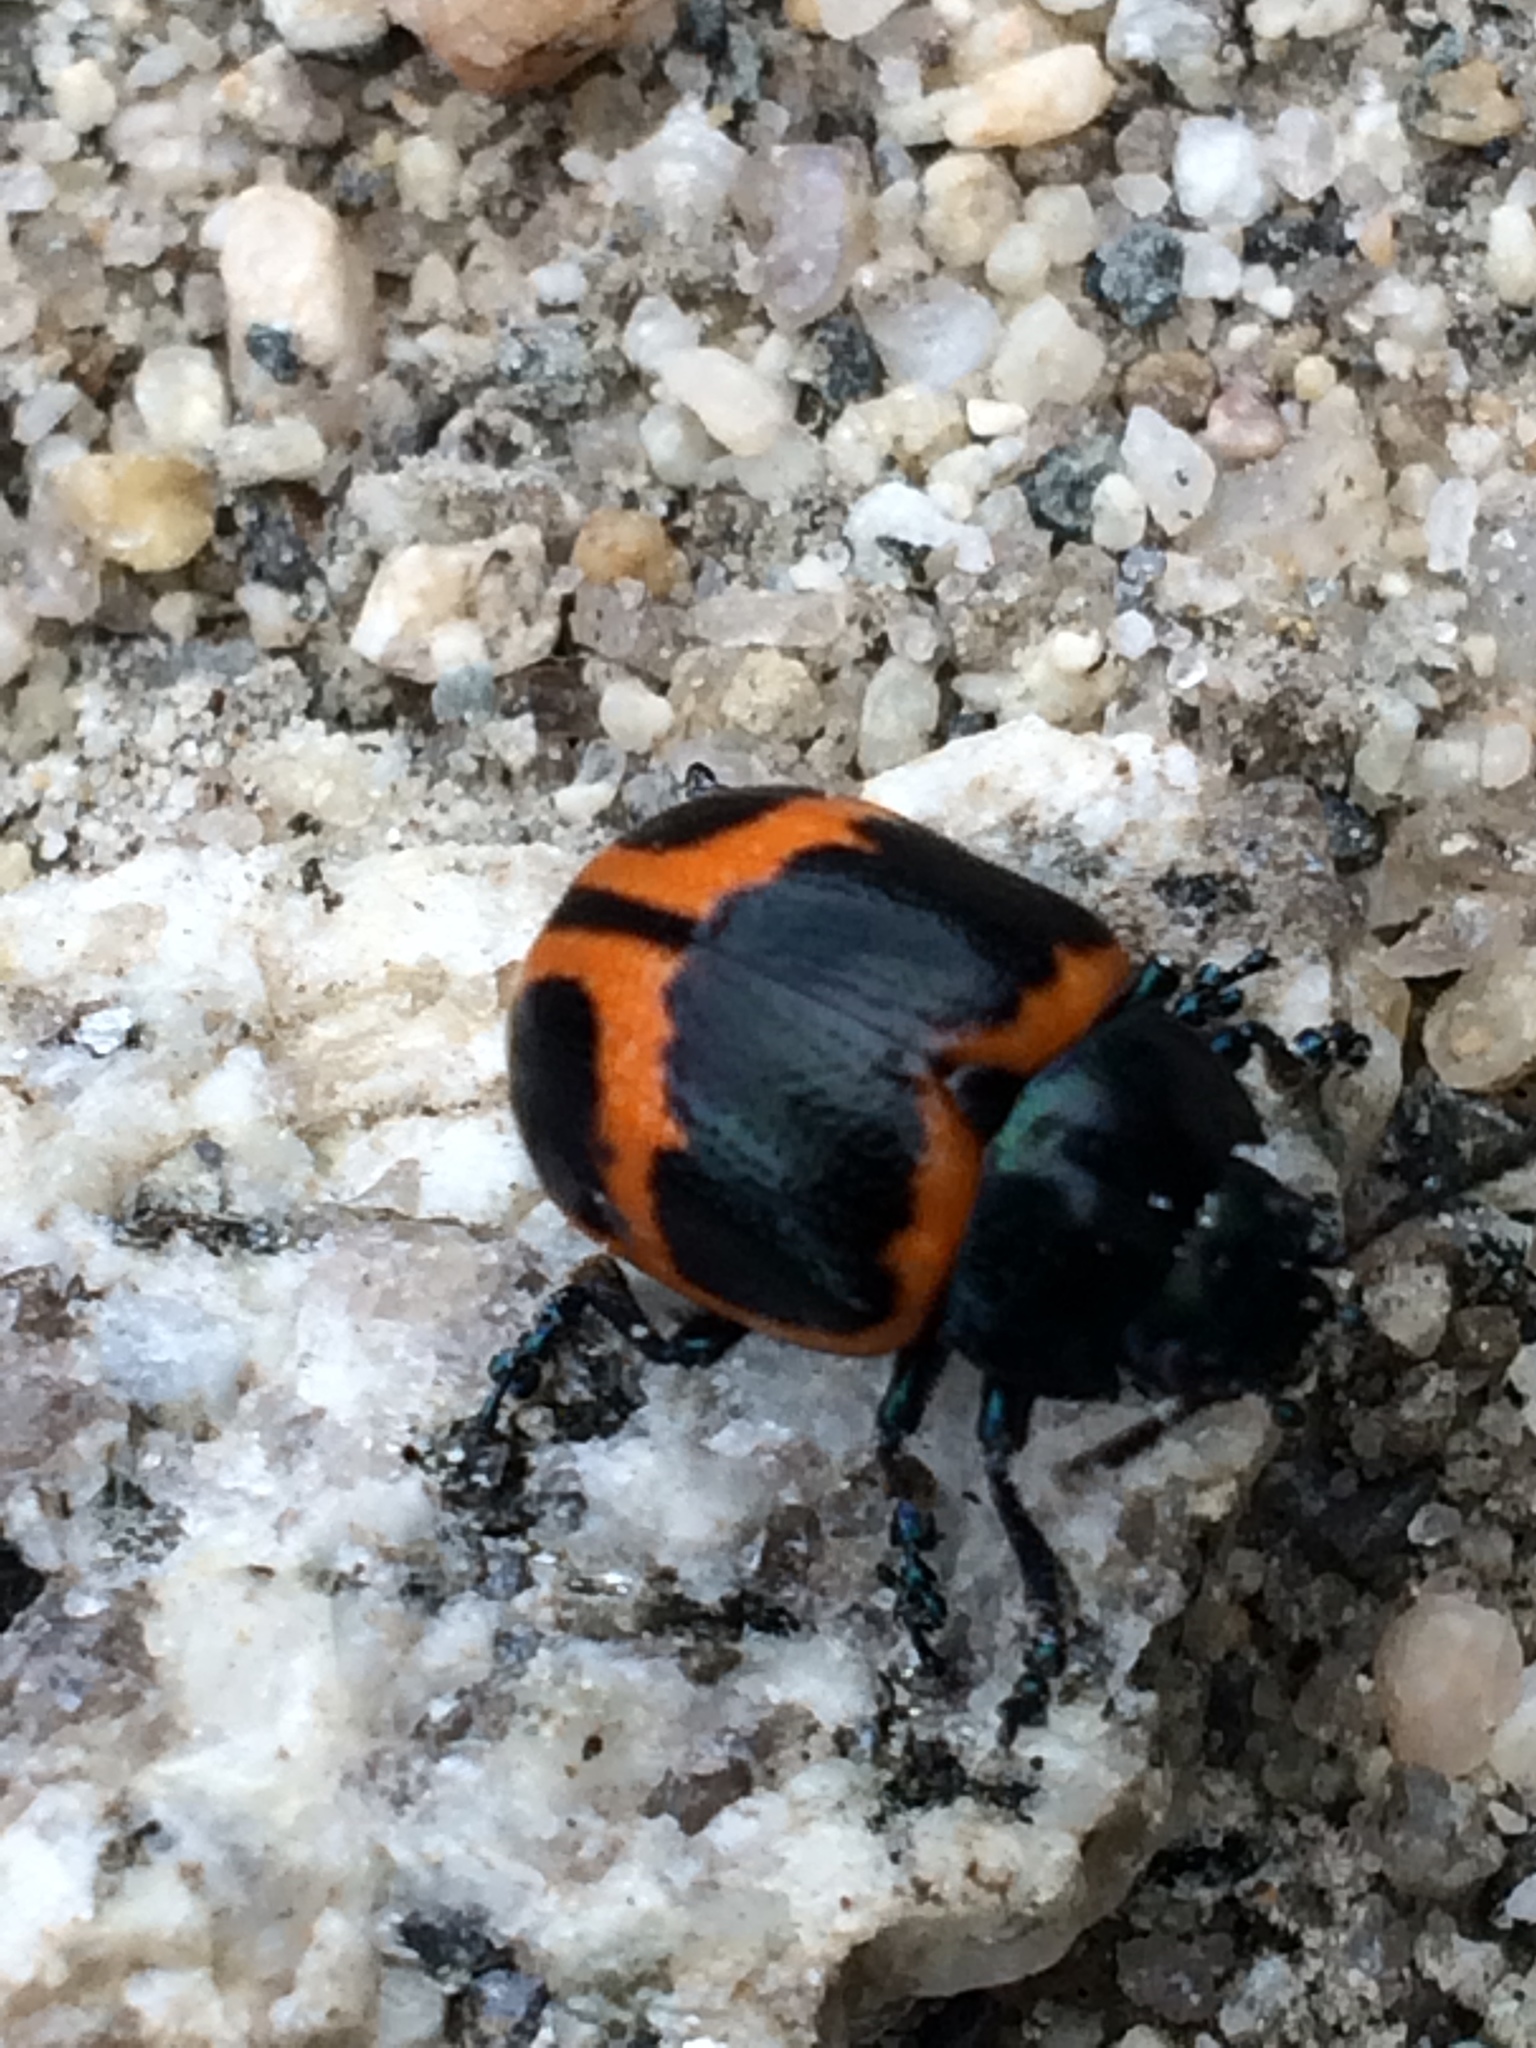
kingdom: Animalia
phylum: Arthropoda
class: Insecta
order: Coleoptera
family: Chrysomelidae
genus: Labidomera
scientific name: Labidomera clivicollis
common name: Swamp milkweed leaf beetle
